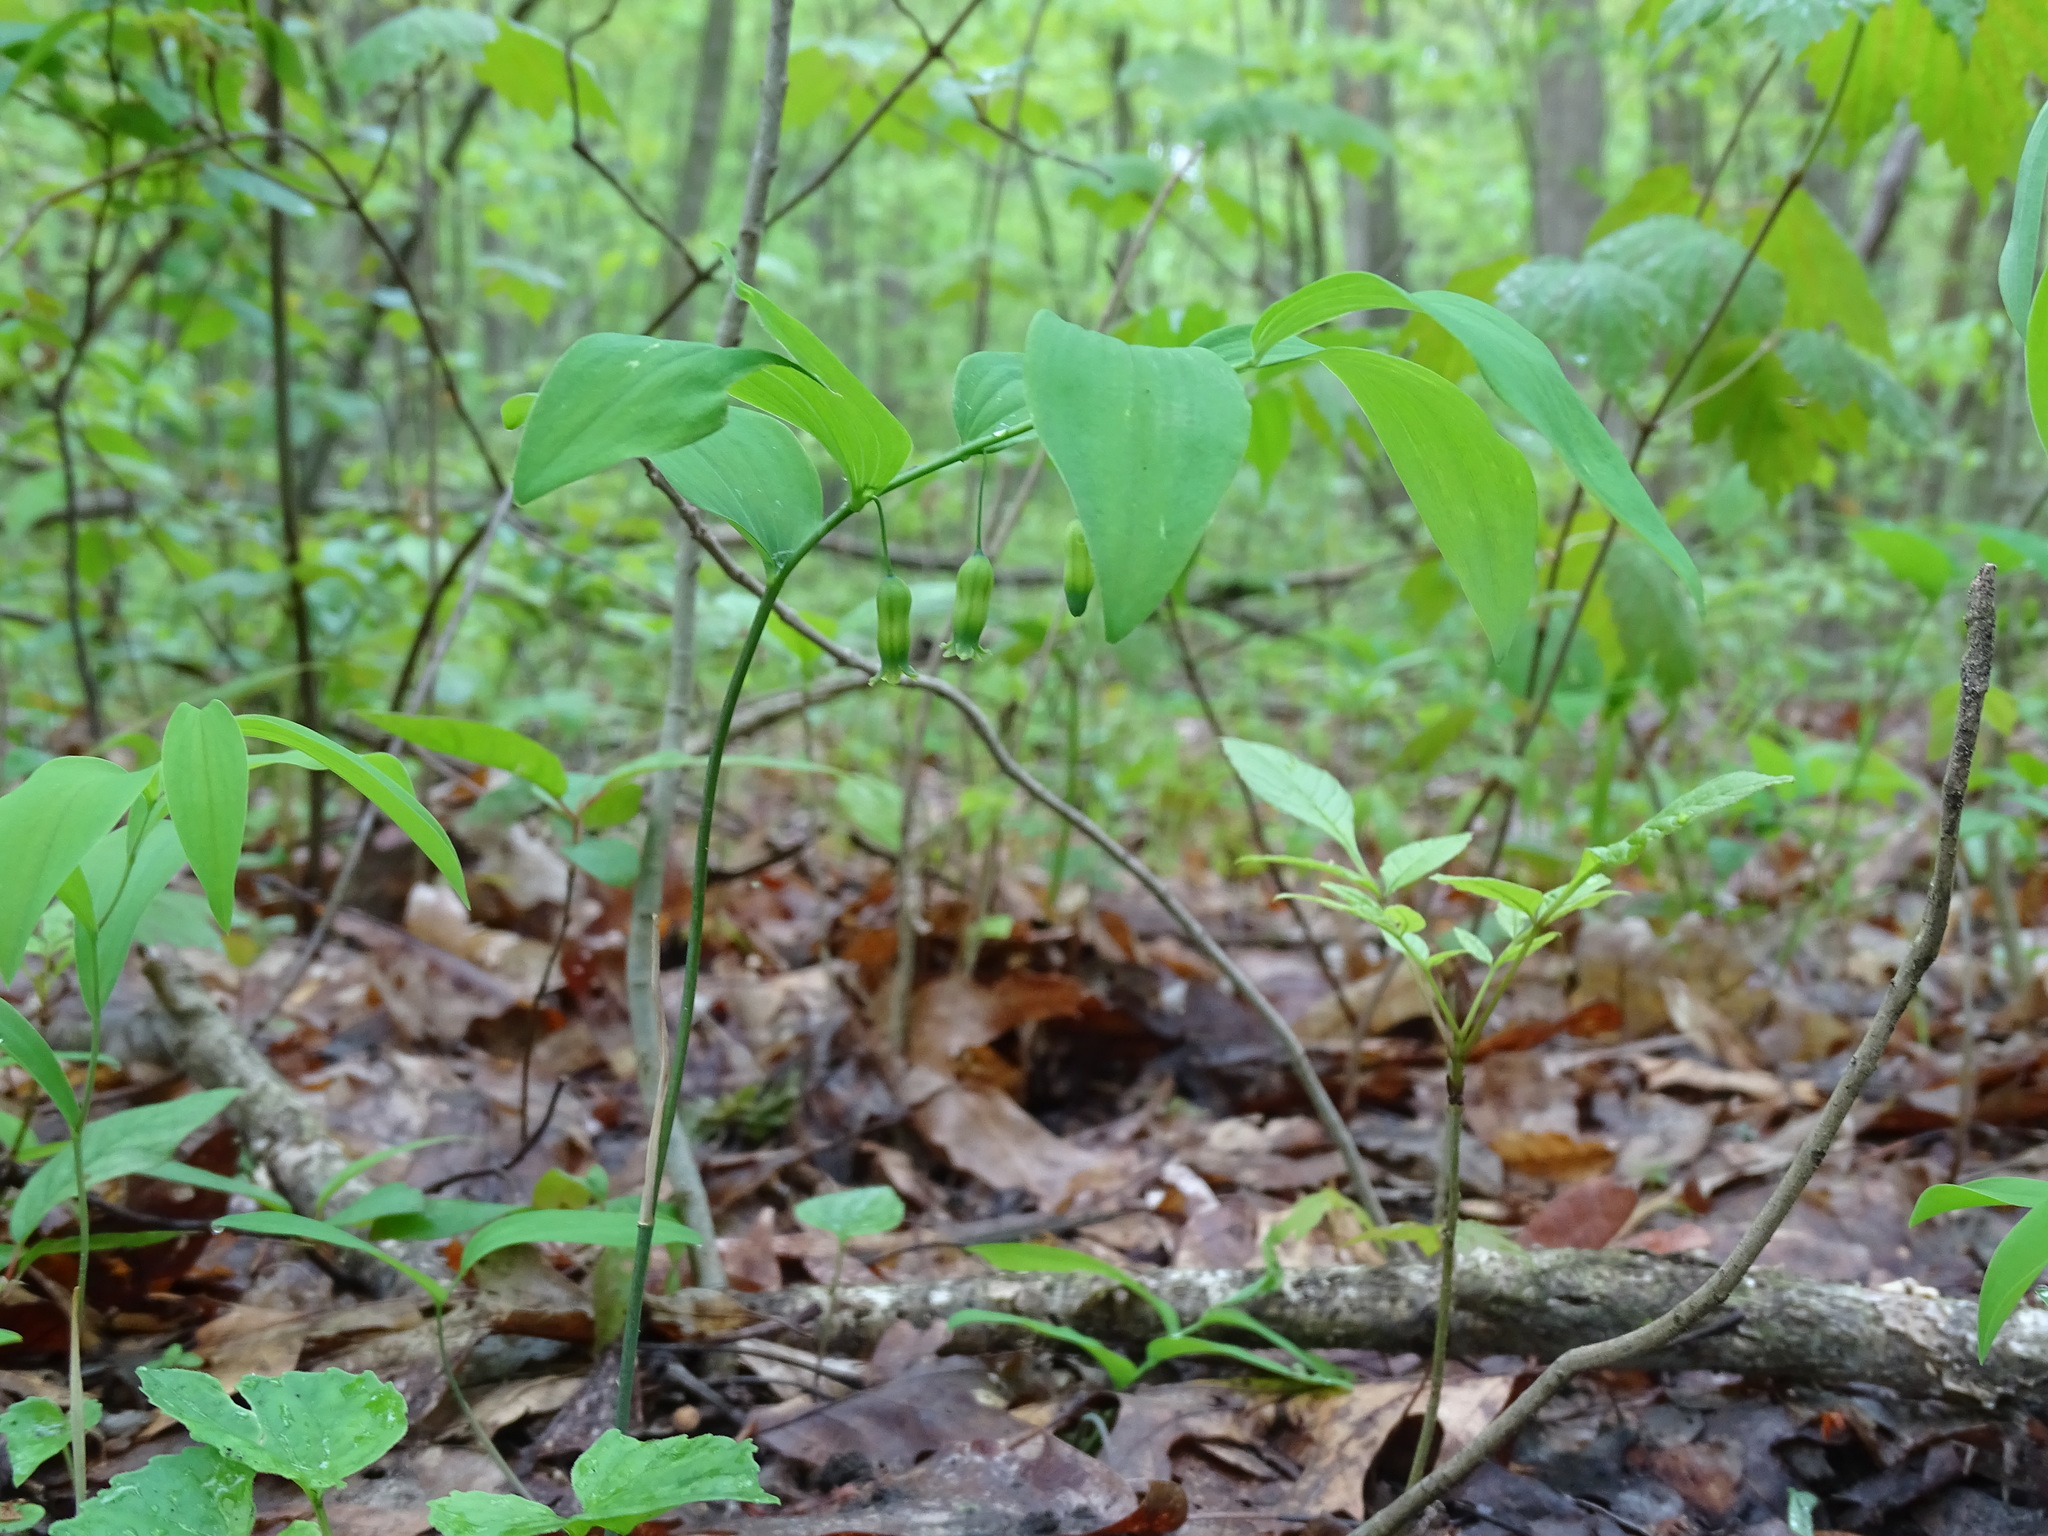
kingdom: Plantae
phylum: Tracheophyta
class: Liliopsida
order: Asparagales
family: Asparagaceae
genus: Polygonatum
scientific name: Polygonatum pubescens
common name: Downy solomon's seal
